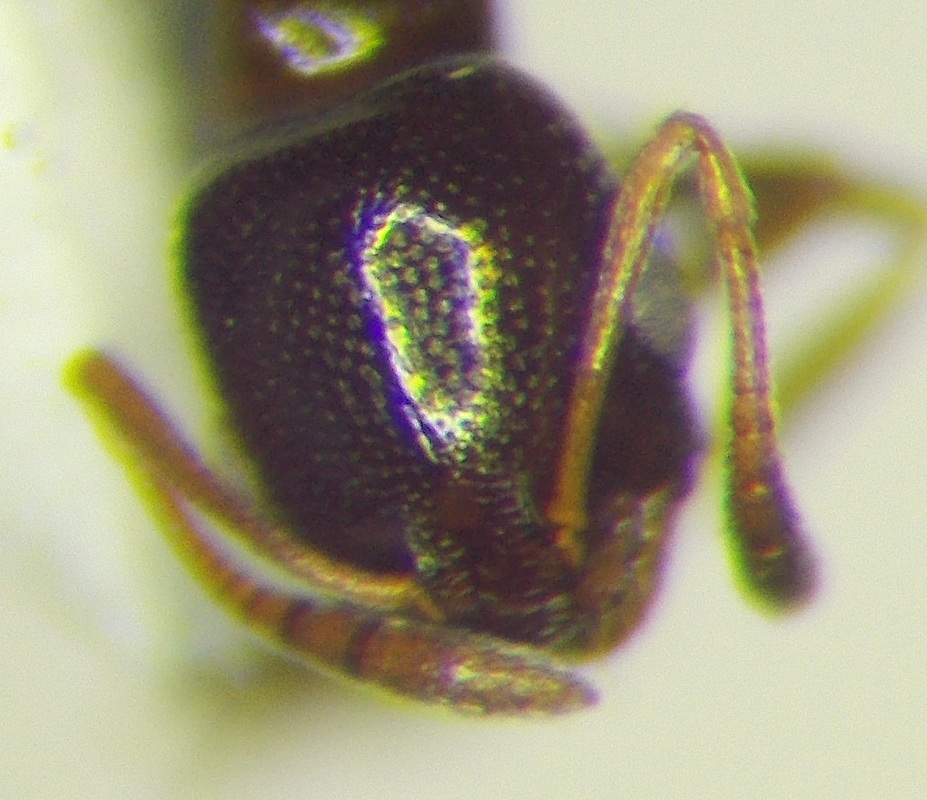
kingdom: Animalia
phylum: Arthropoda
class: Insecta
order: Hymenoptera
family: Formicidae
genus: Cardiocondyla
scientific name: Cardiocondyla ulianini
